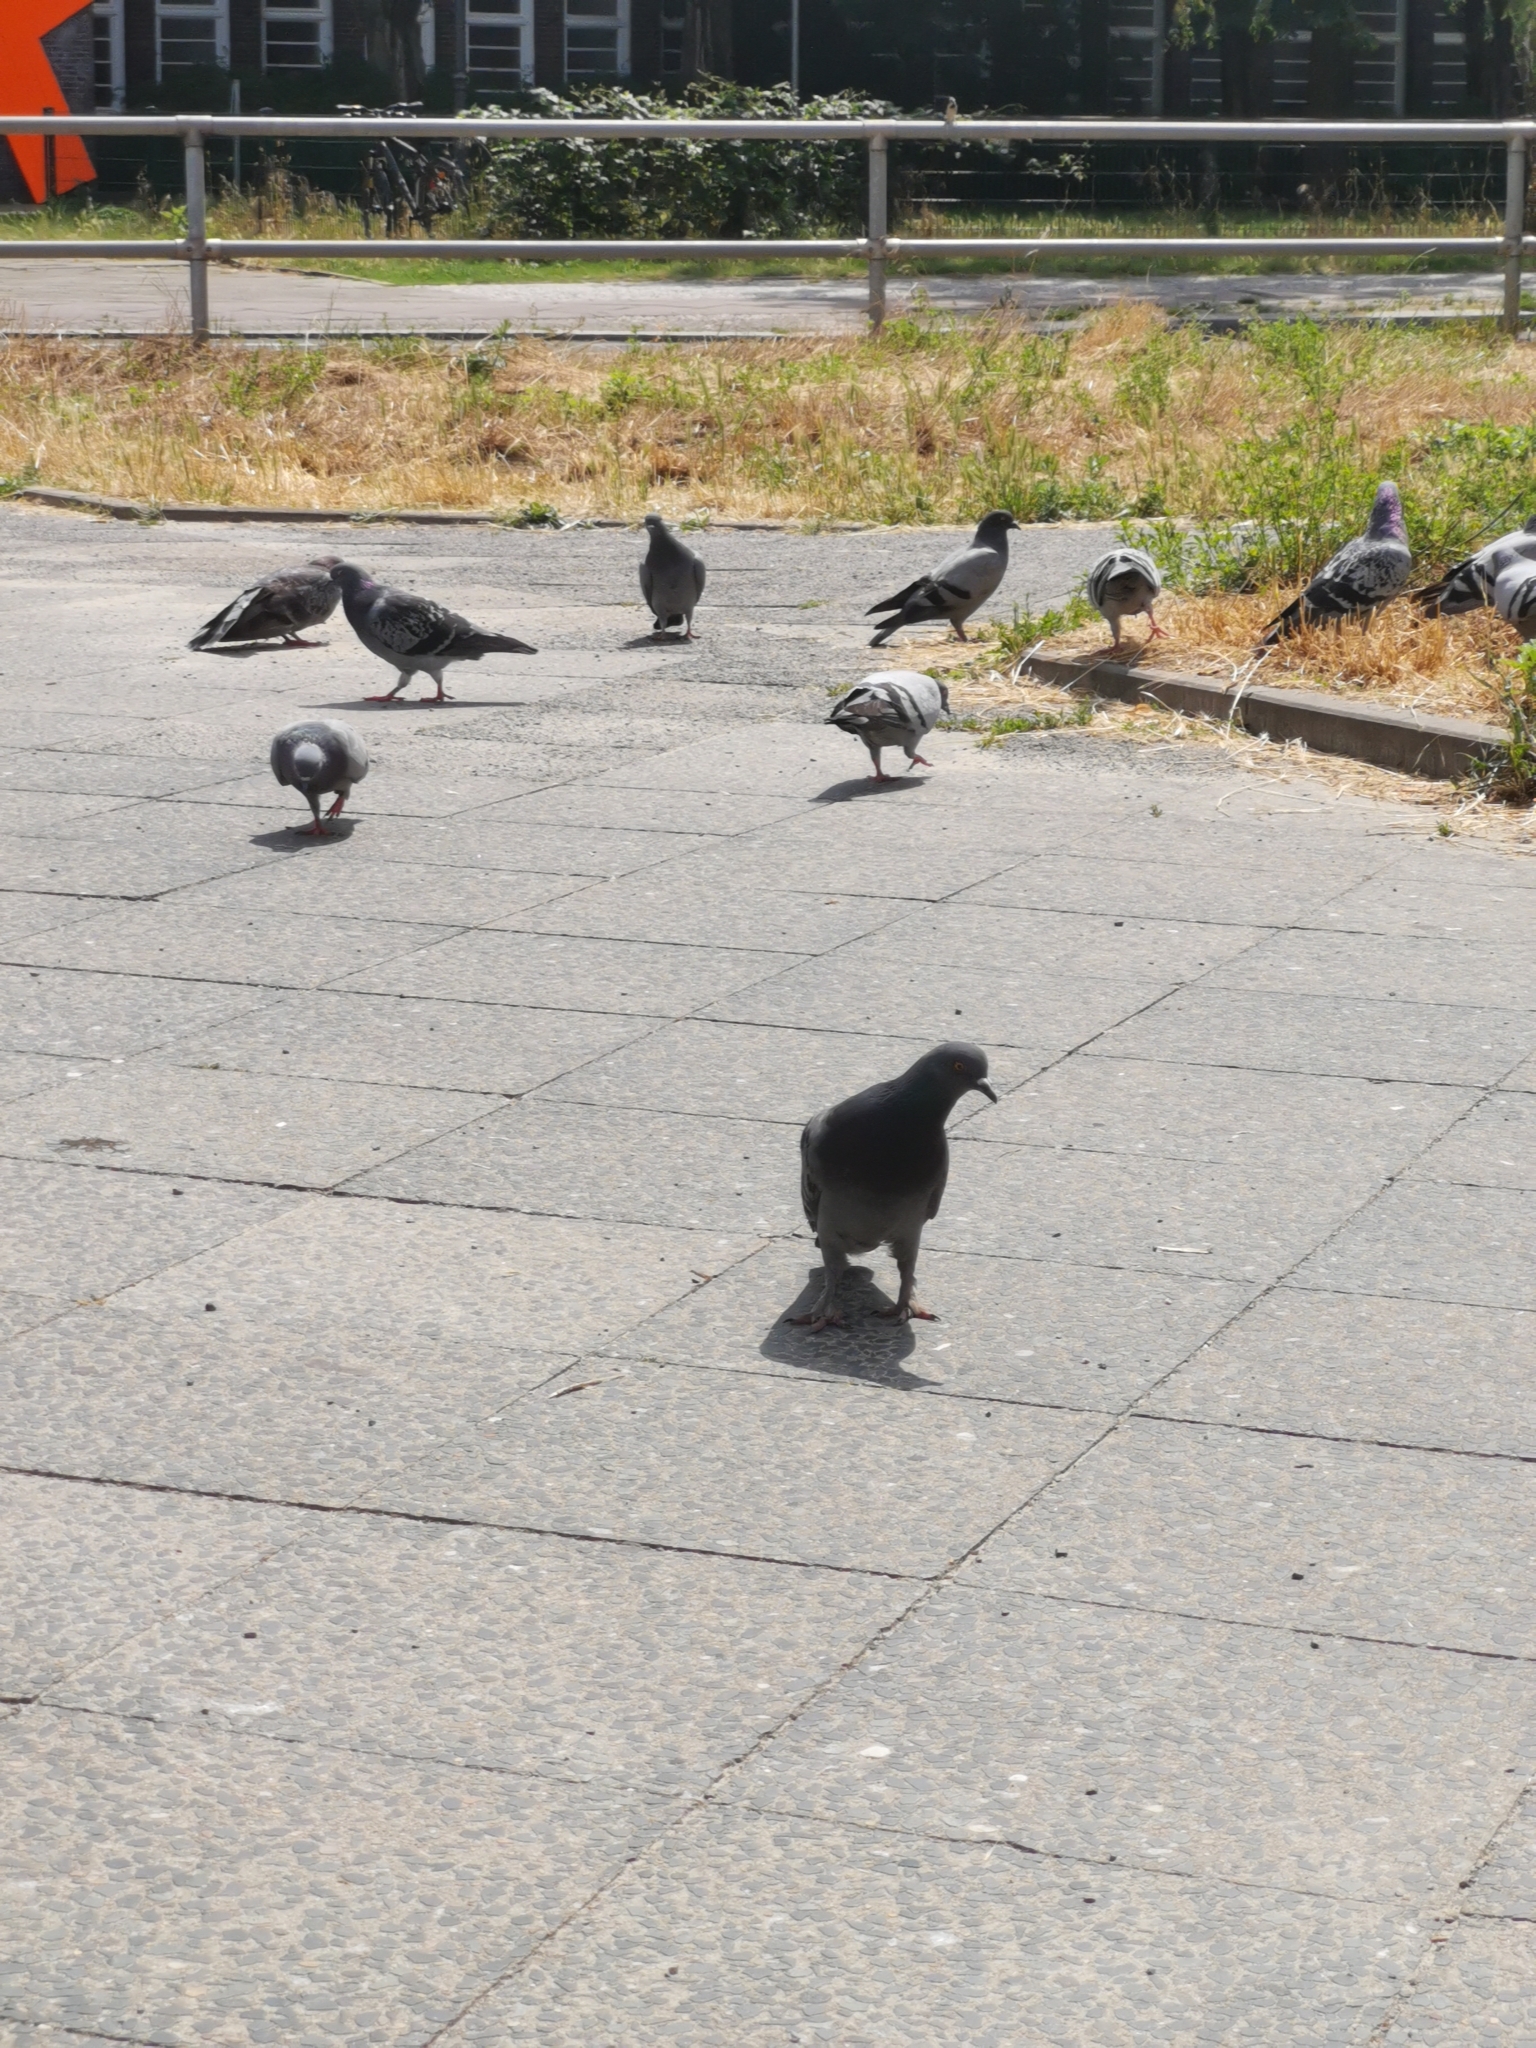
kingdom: Animalia
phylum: Chordata
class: Aves
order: Columbiformes
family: Columbidae
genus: Columba
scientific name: Columba livia
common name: Rock pigeon
